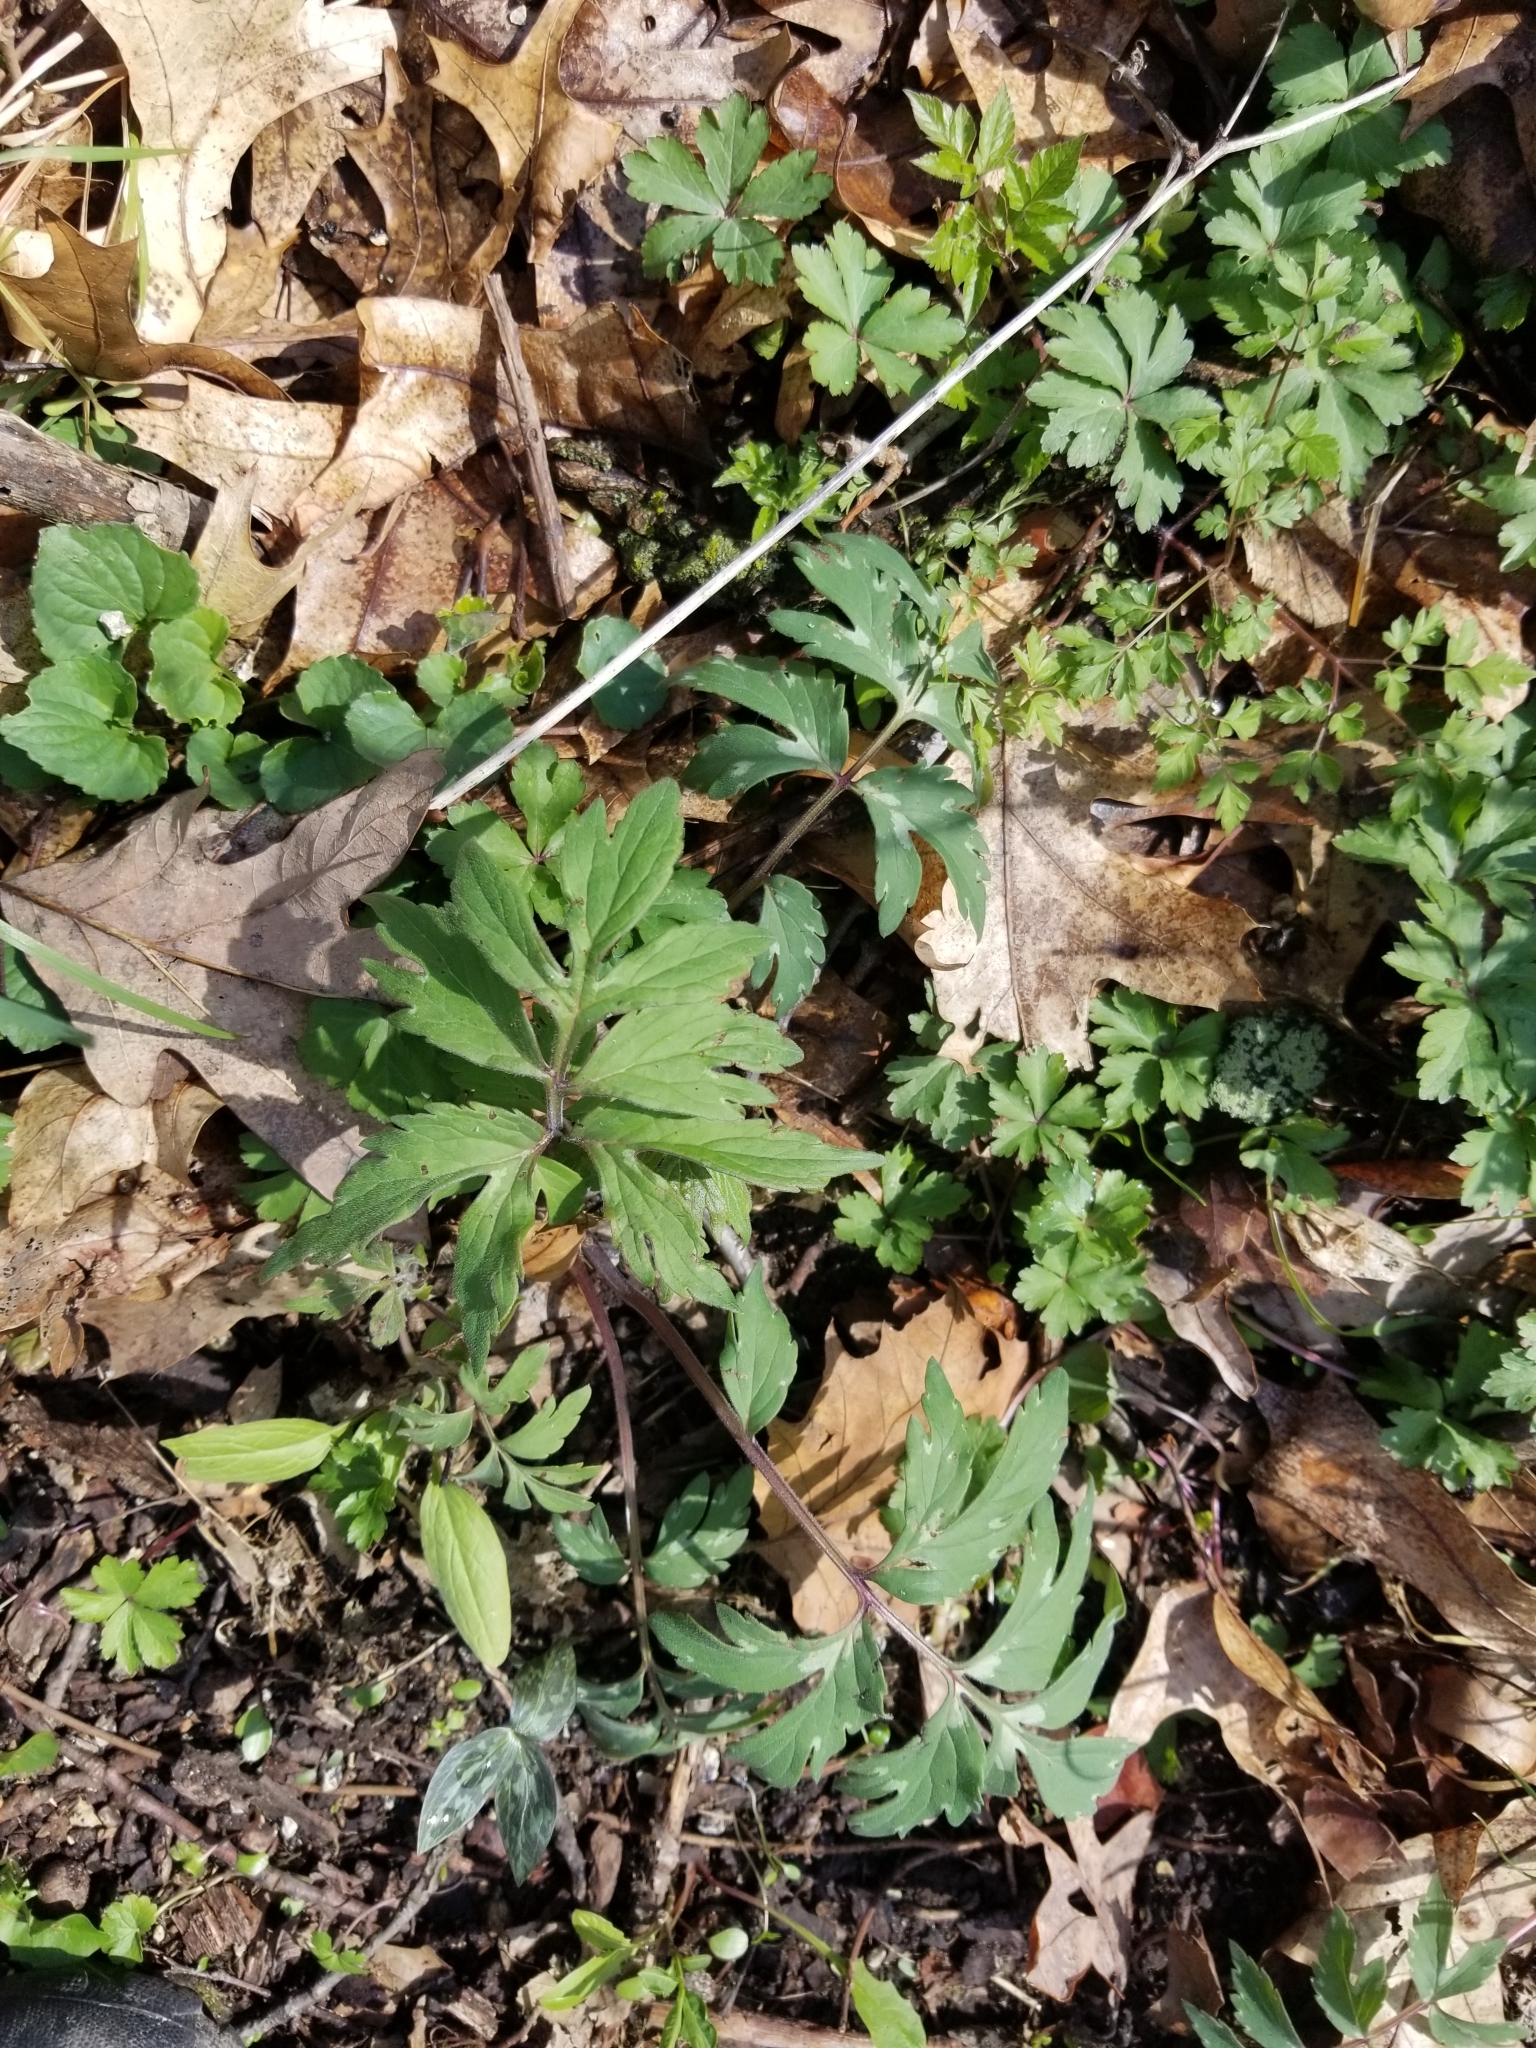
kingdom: Plantae
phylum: Tracheophyta
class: Magnoliopsida
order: Boraginales
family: Hydrophyllaceae
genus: Hydrophyllum
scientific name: Hydrophyllum virginianum
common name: Virginia waterleaf
